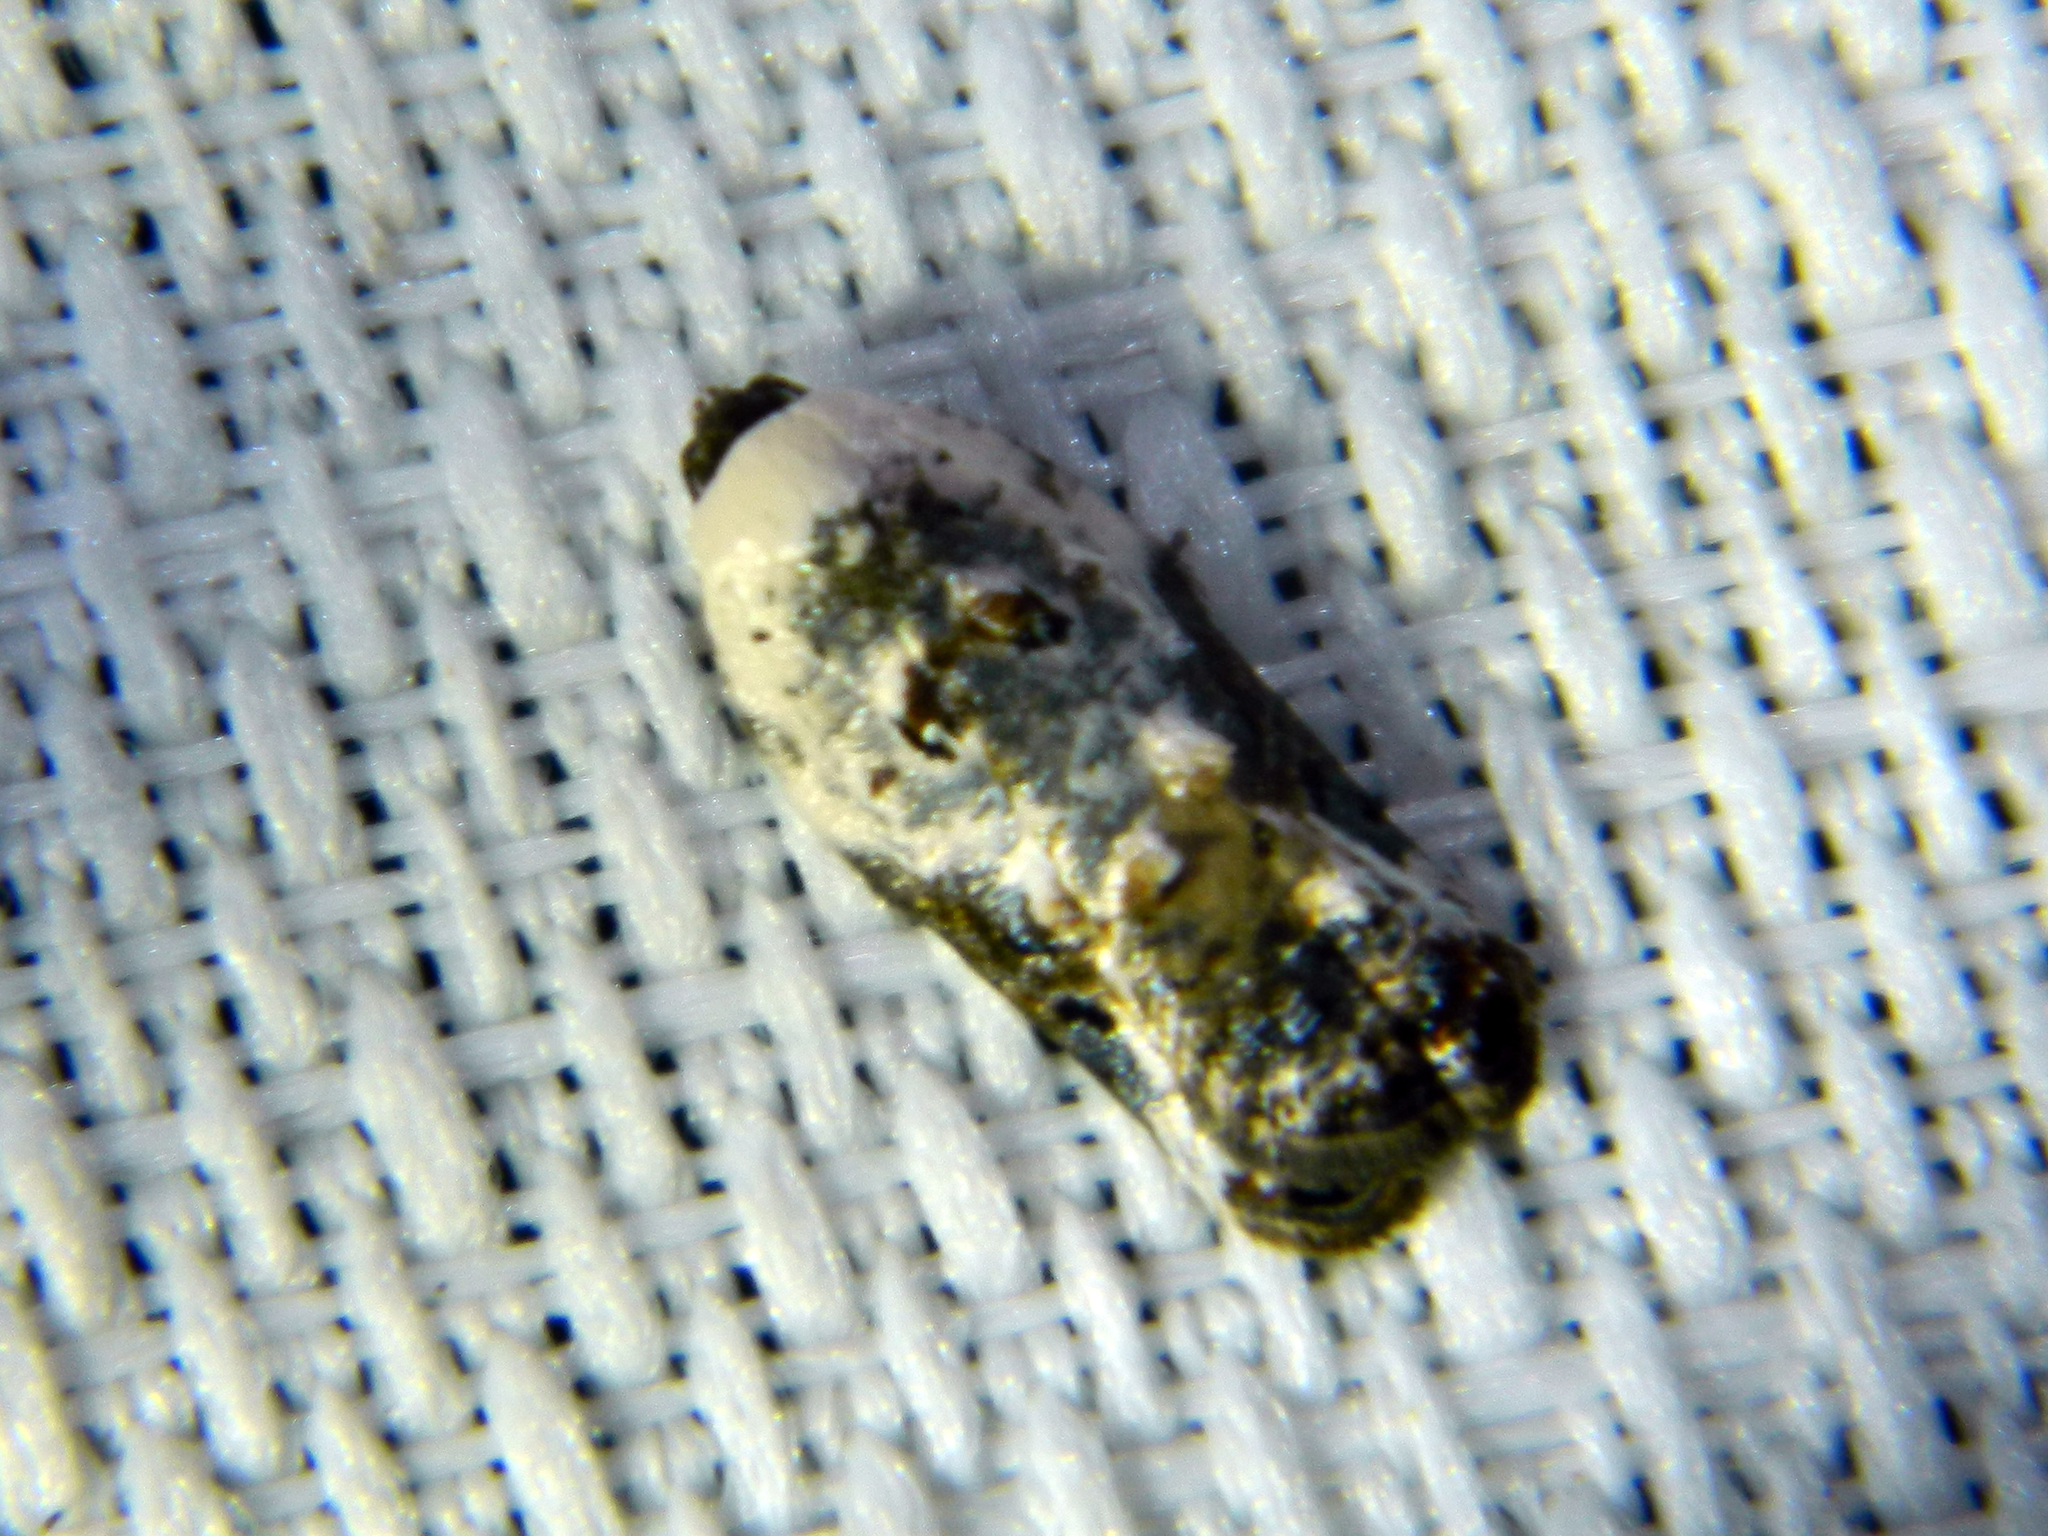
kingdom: Animalia
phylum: Arthropoda
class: Insecta
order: Lepidoptera
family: Tortricidae
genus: Acleris
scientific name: Acleris nivisellana
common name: Snowy-shouldered acleris moth
